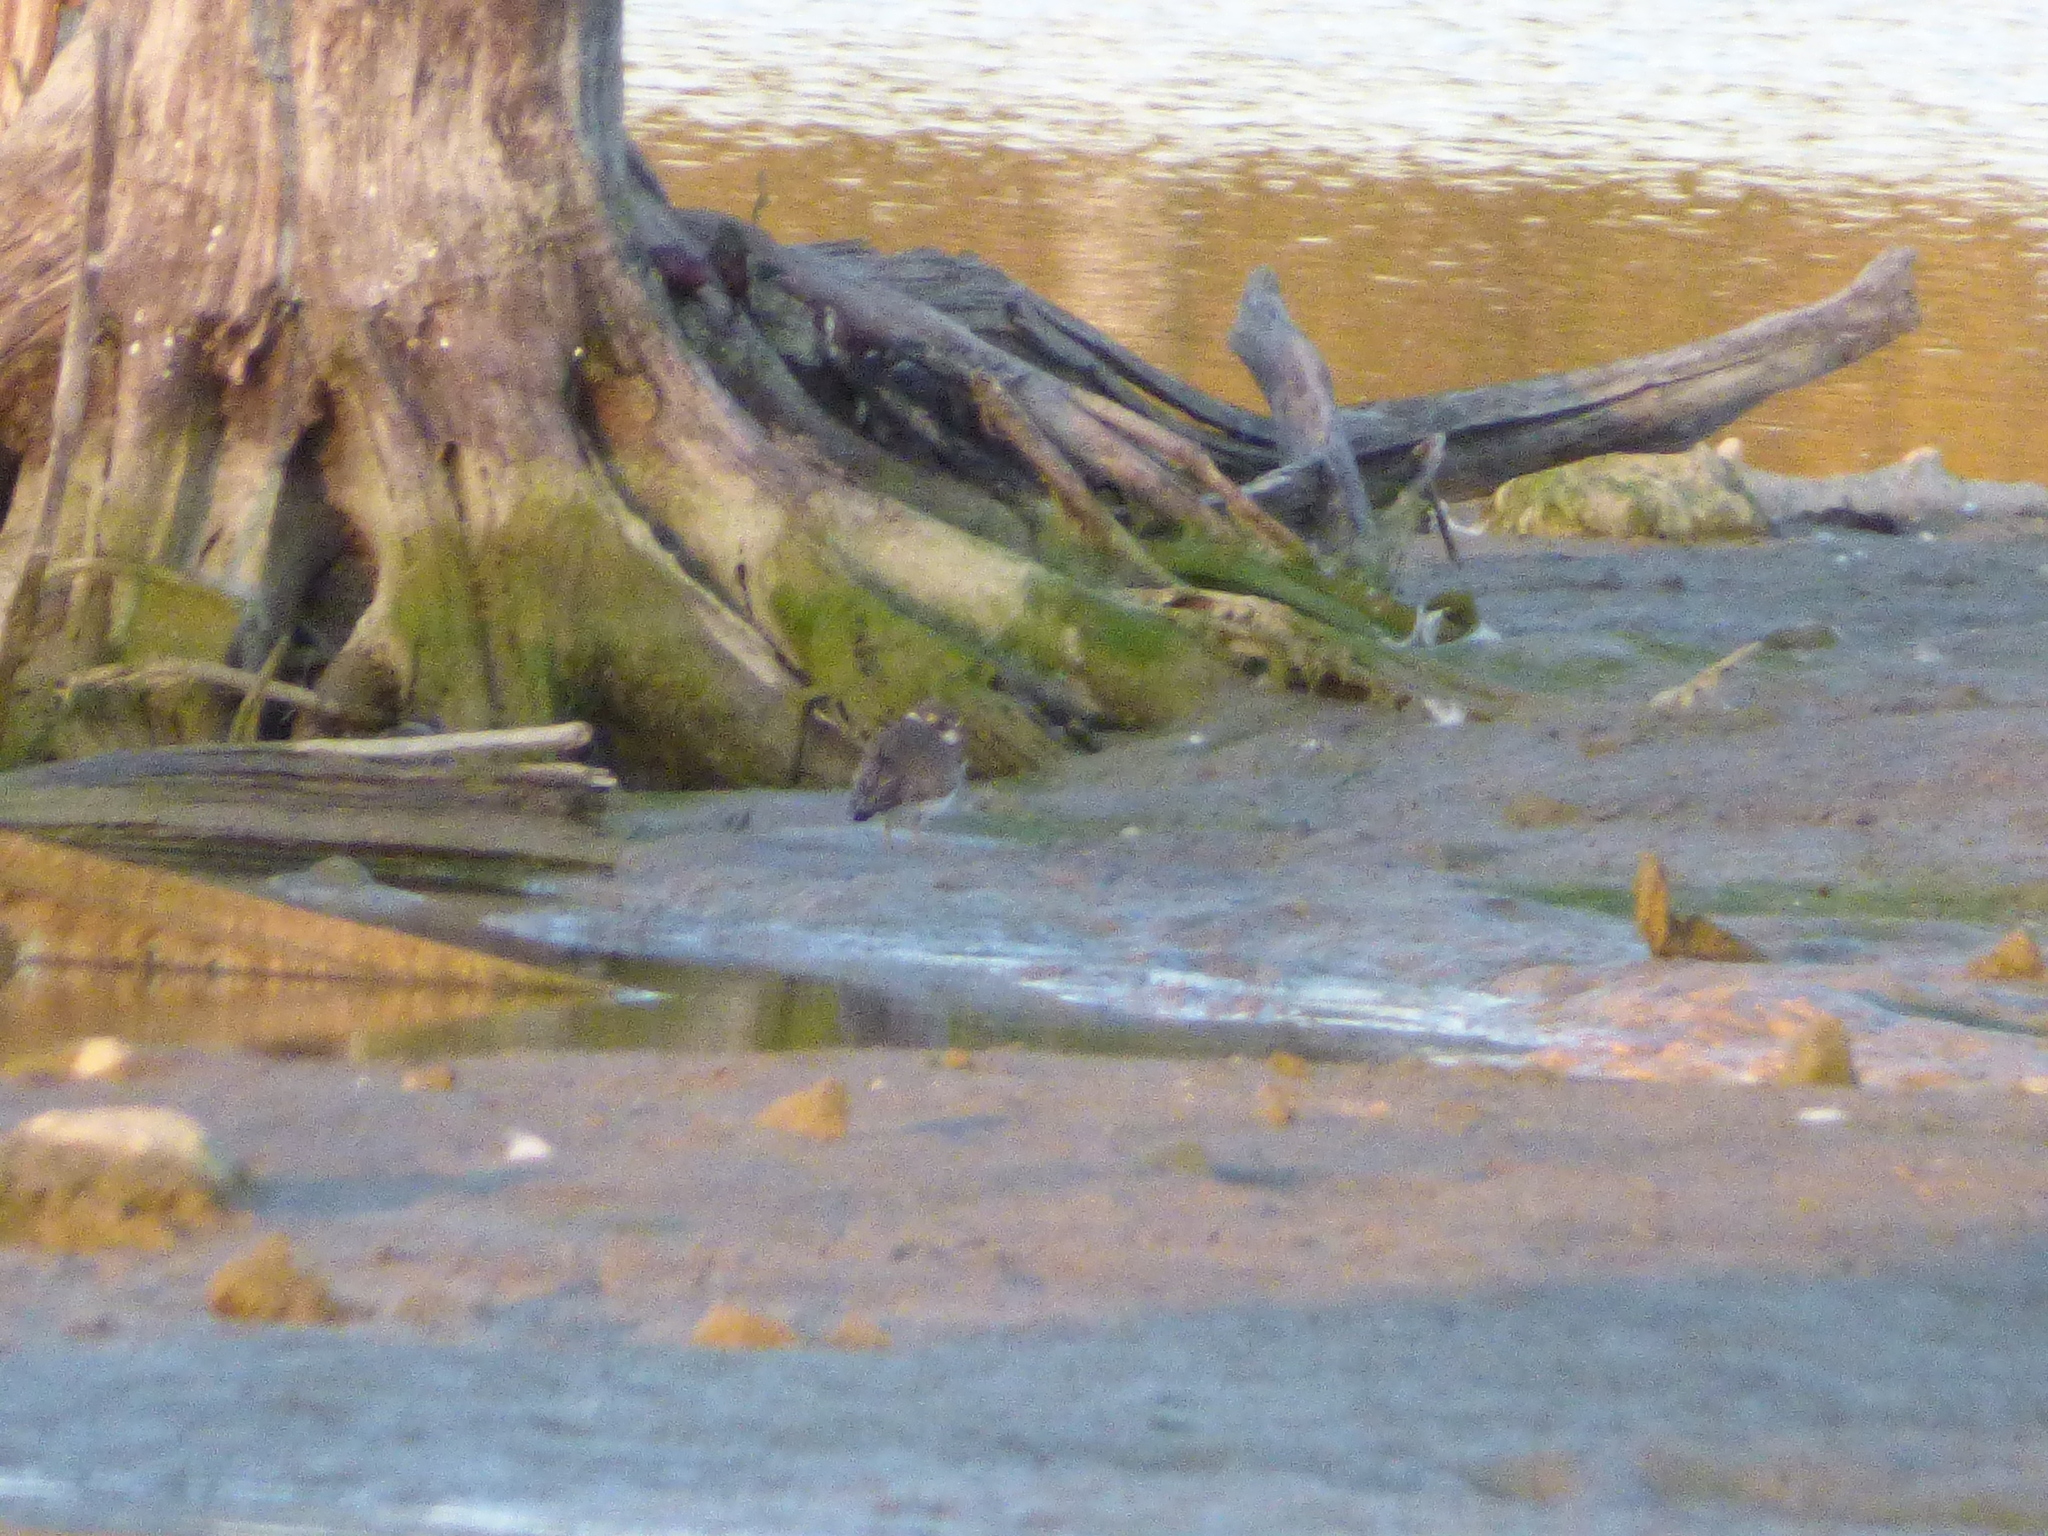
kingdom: Animalia
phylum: Chordata
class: Aves
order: Charadriiformes
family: Charadriidae
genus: Charadrius
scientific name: Charadrius semipalmatus
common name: Semipalmated plover
